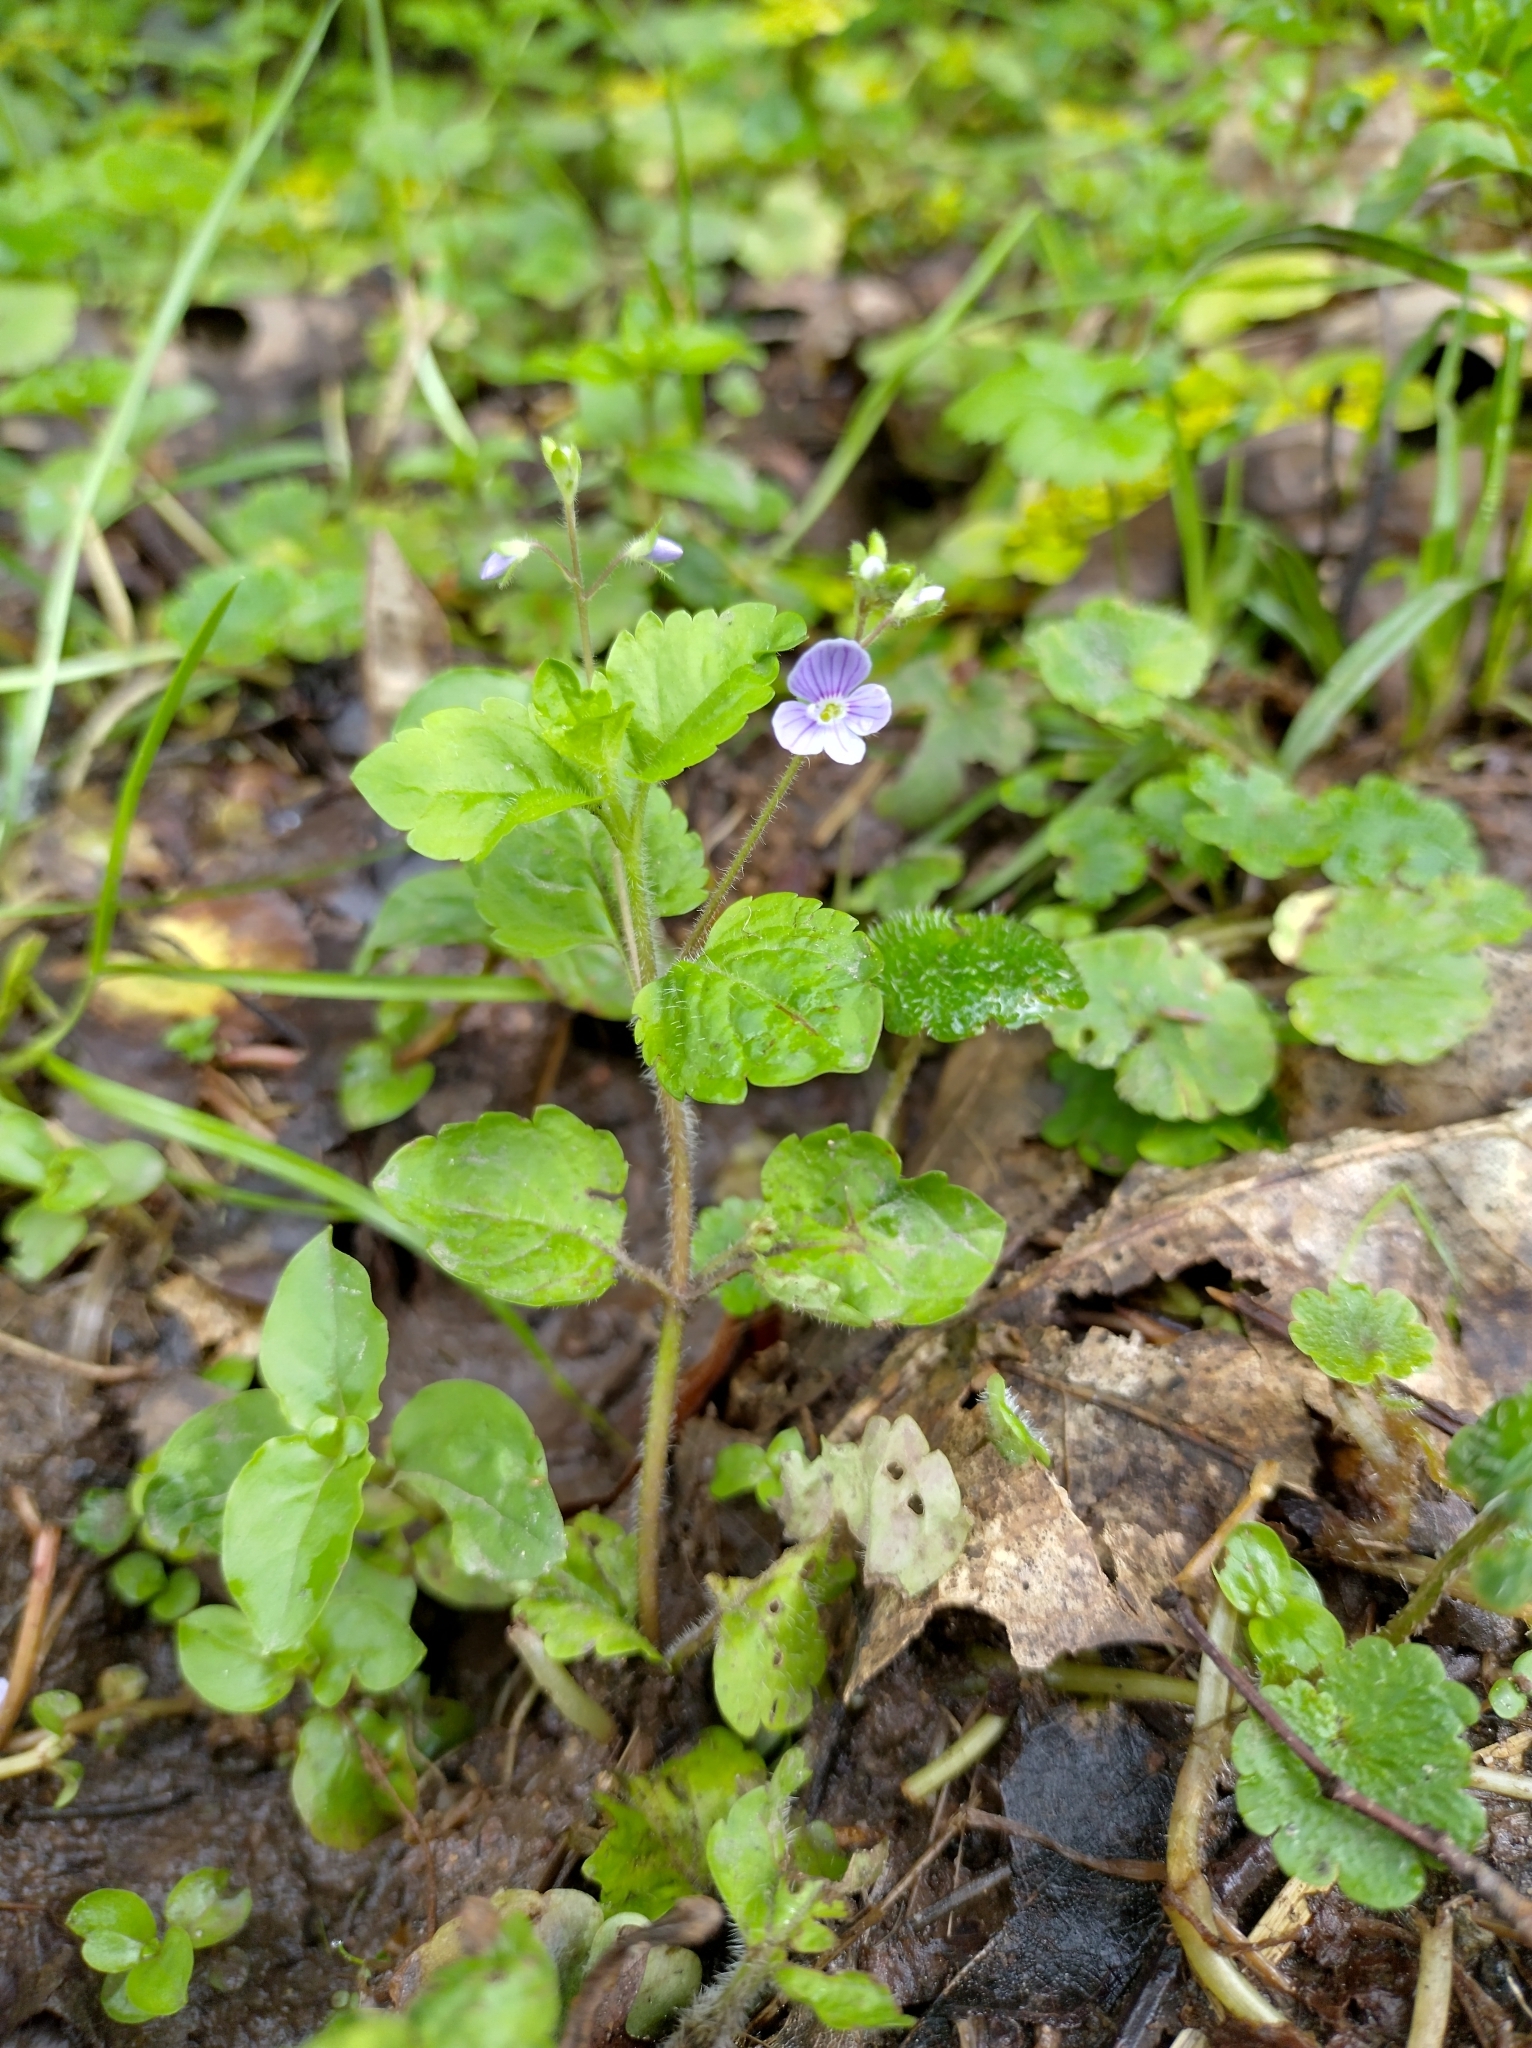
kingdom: Plantae
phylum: Tracheophyta
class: Magnoliopsida
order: Lamiales
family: Plantaginaceae
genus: Veronica
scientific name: Veronica montana
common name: Wood speedwell
